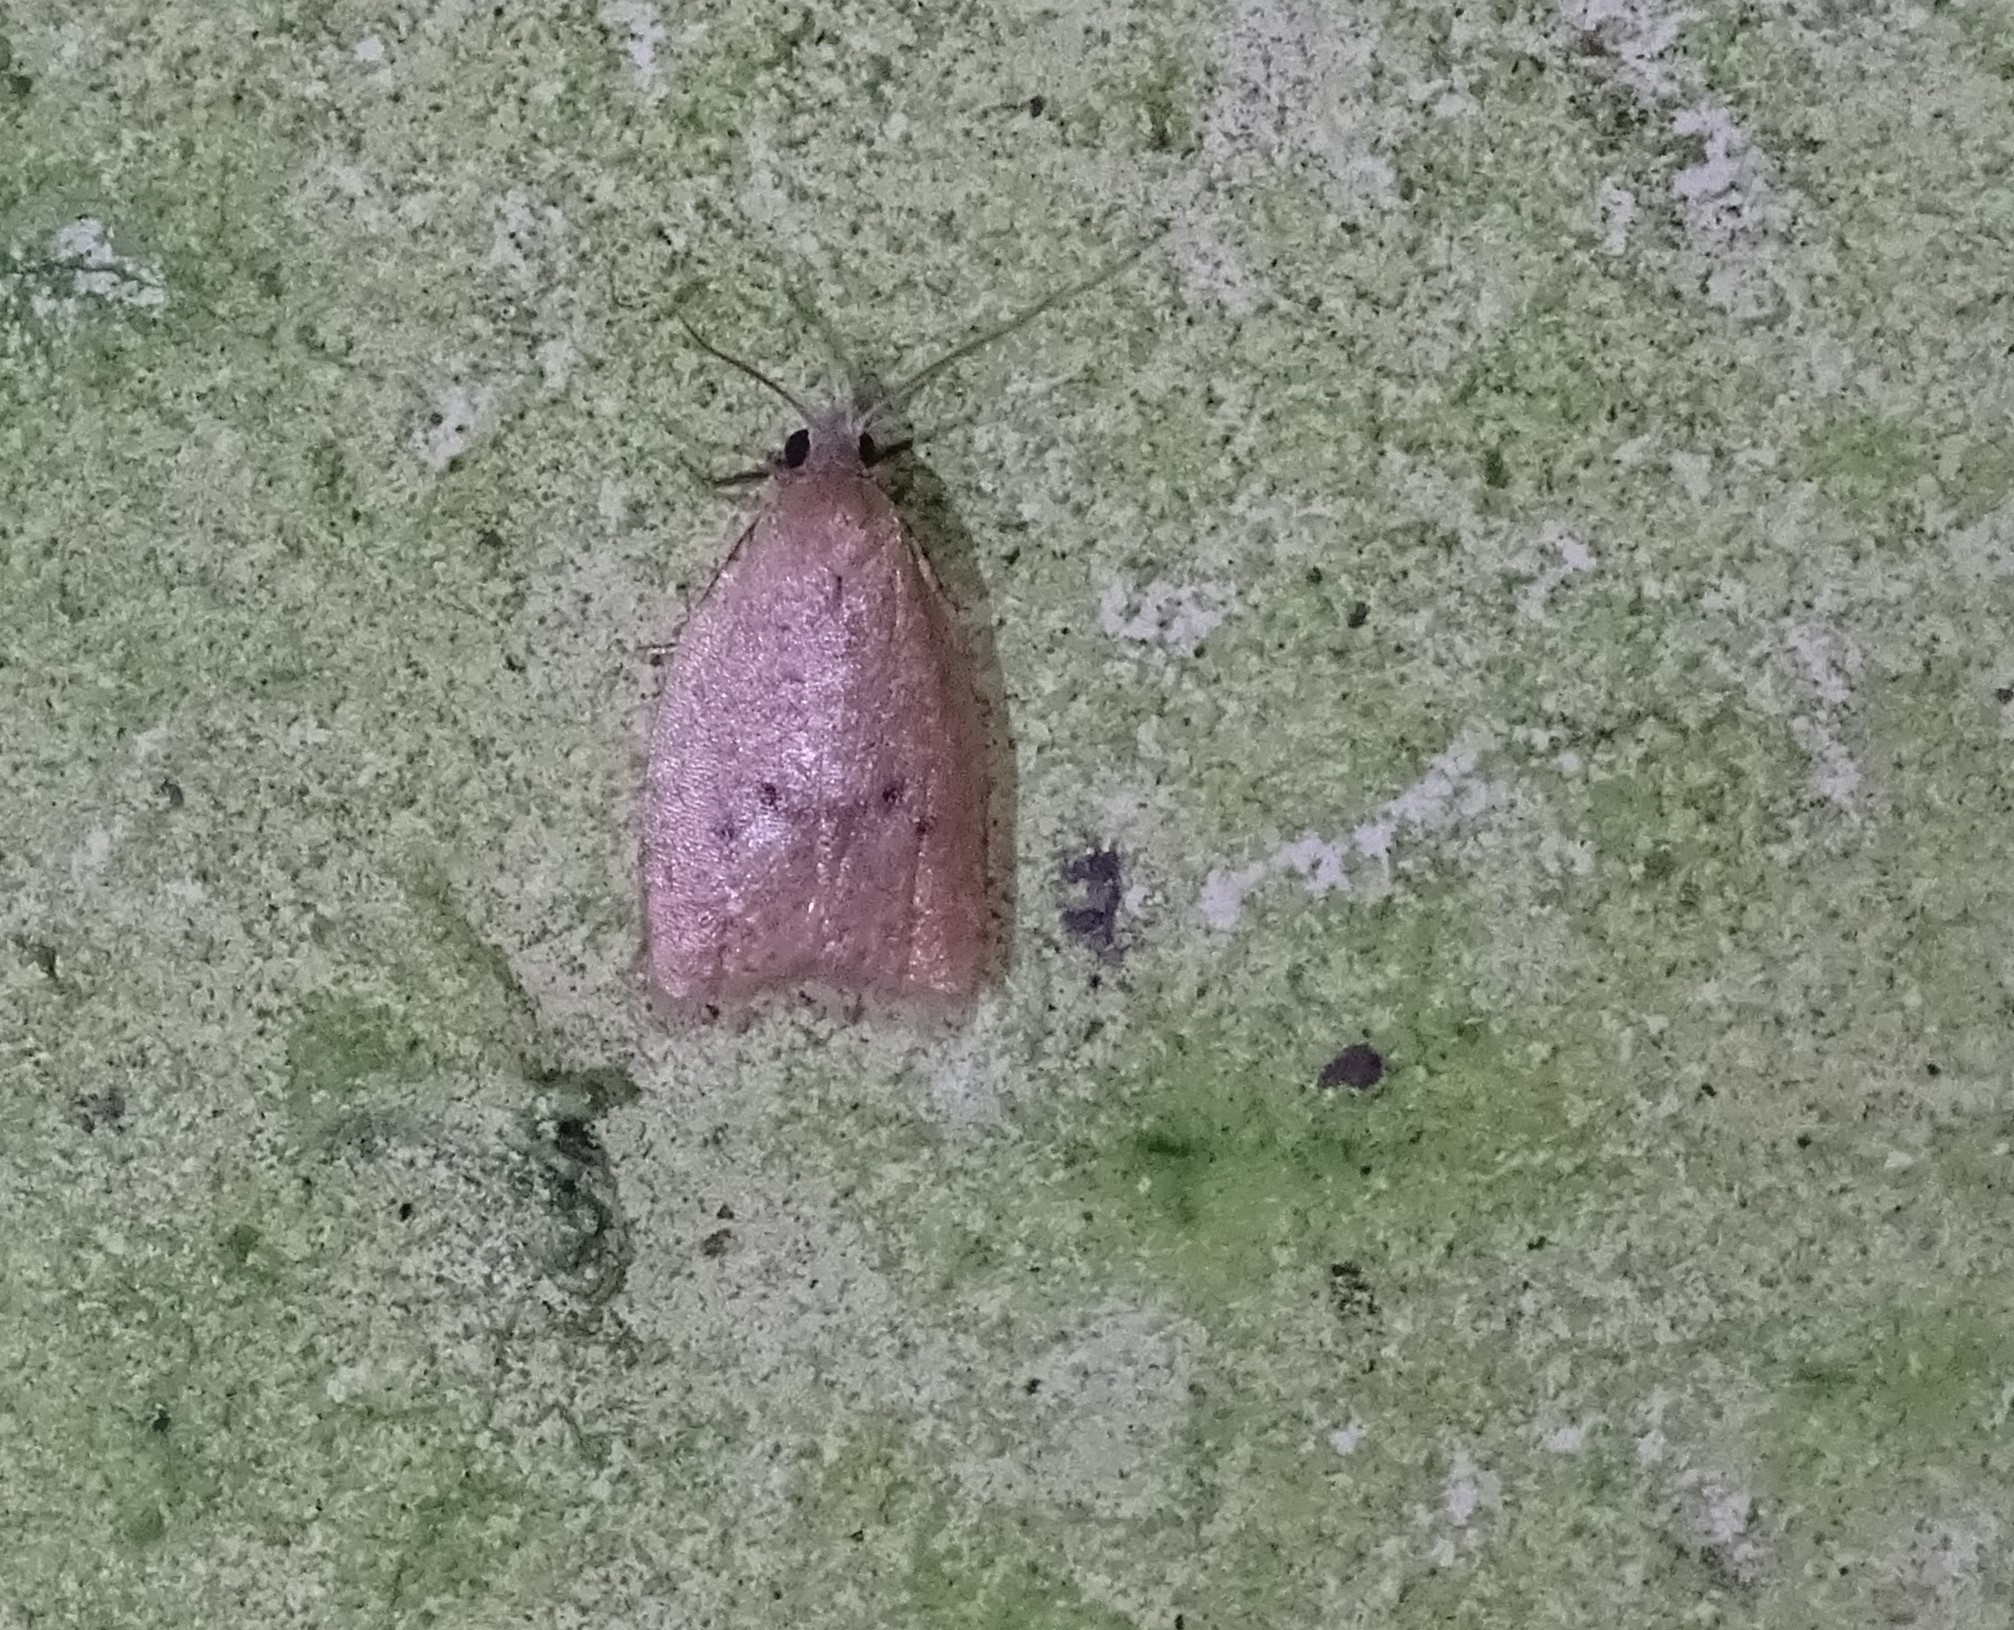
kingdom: Animalia
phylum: Arthropoda
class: Insecta
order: Lepidoptera
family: Tortricidae
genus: Sparganothoides
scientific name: Sparganothoides lentiginosana
